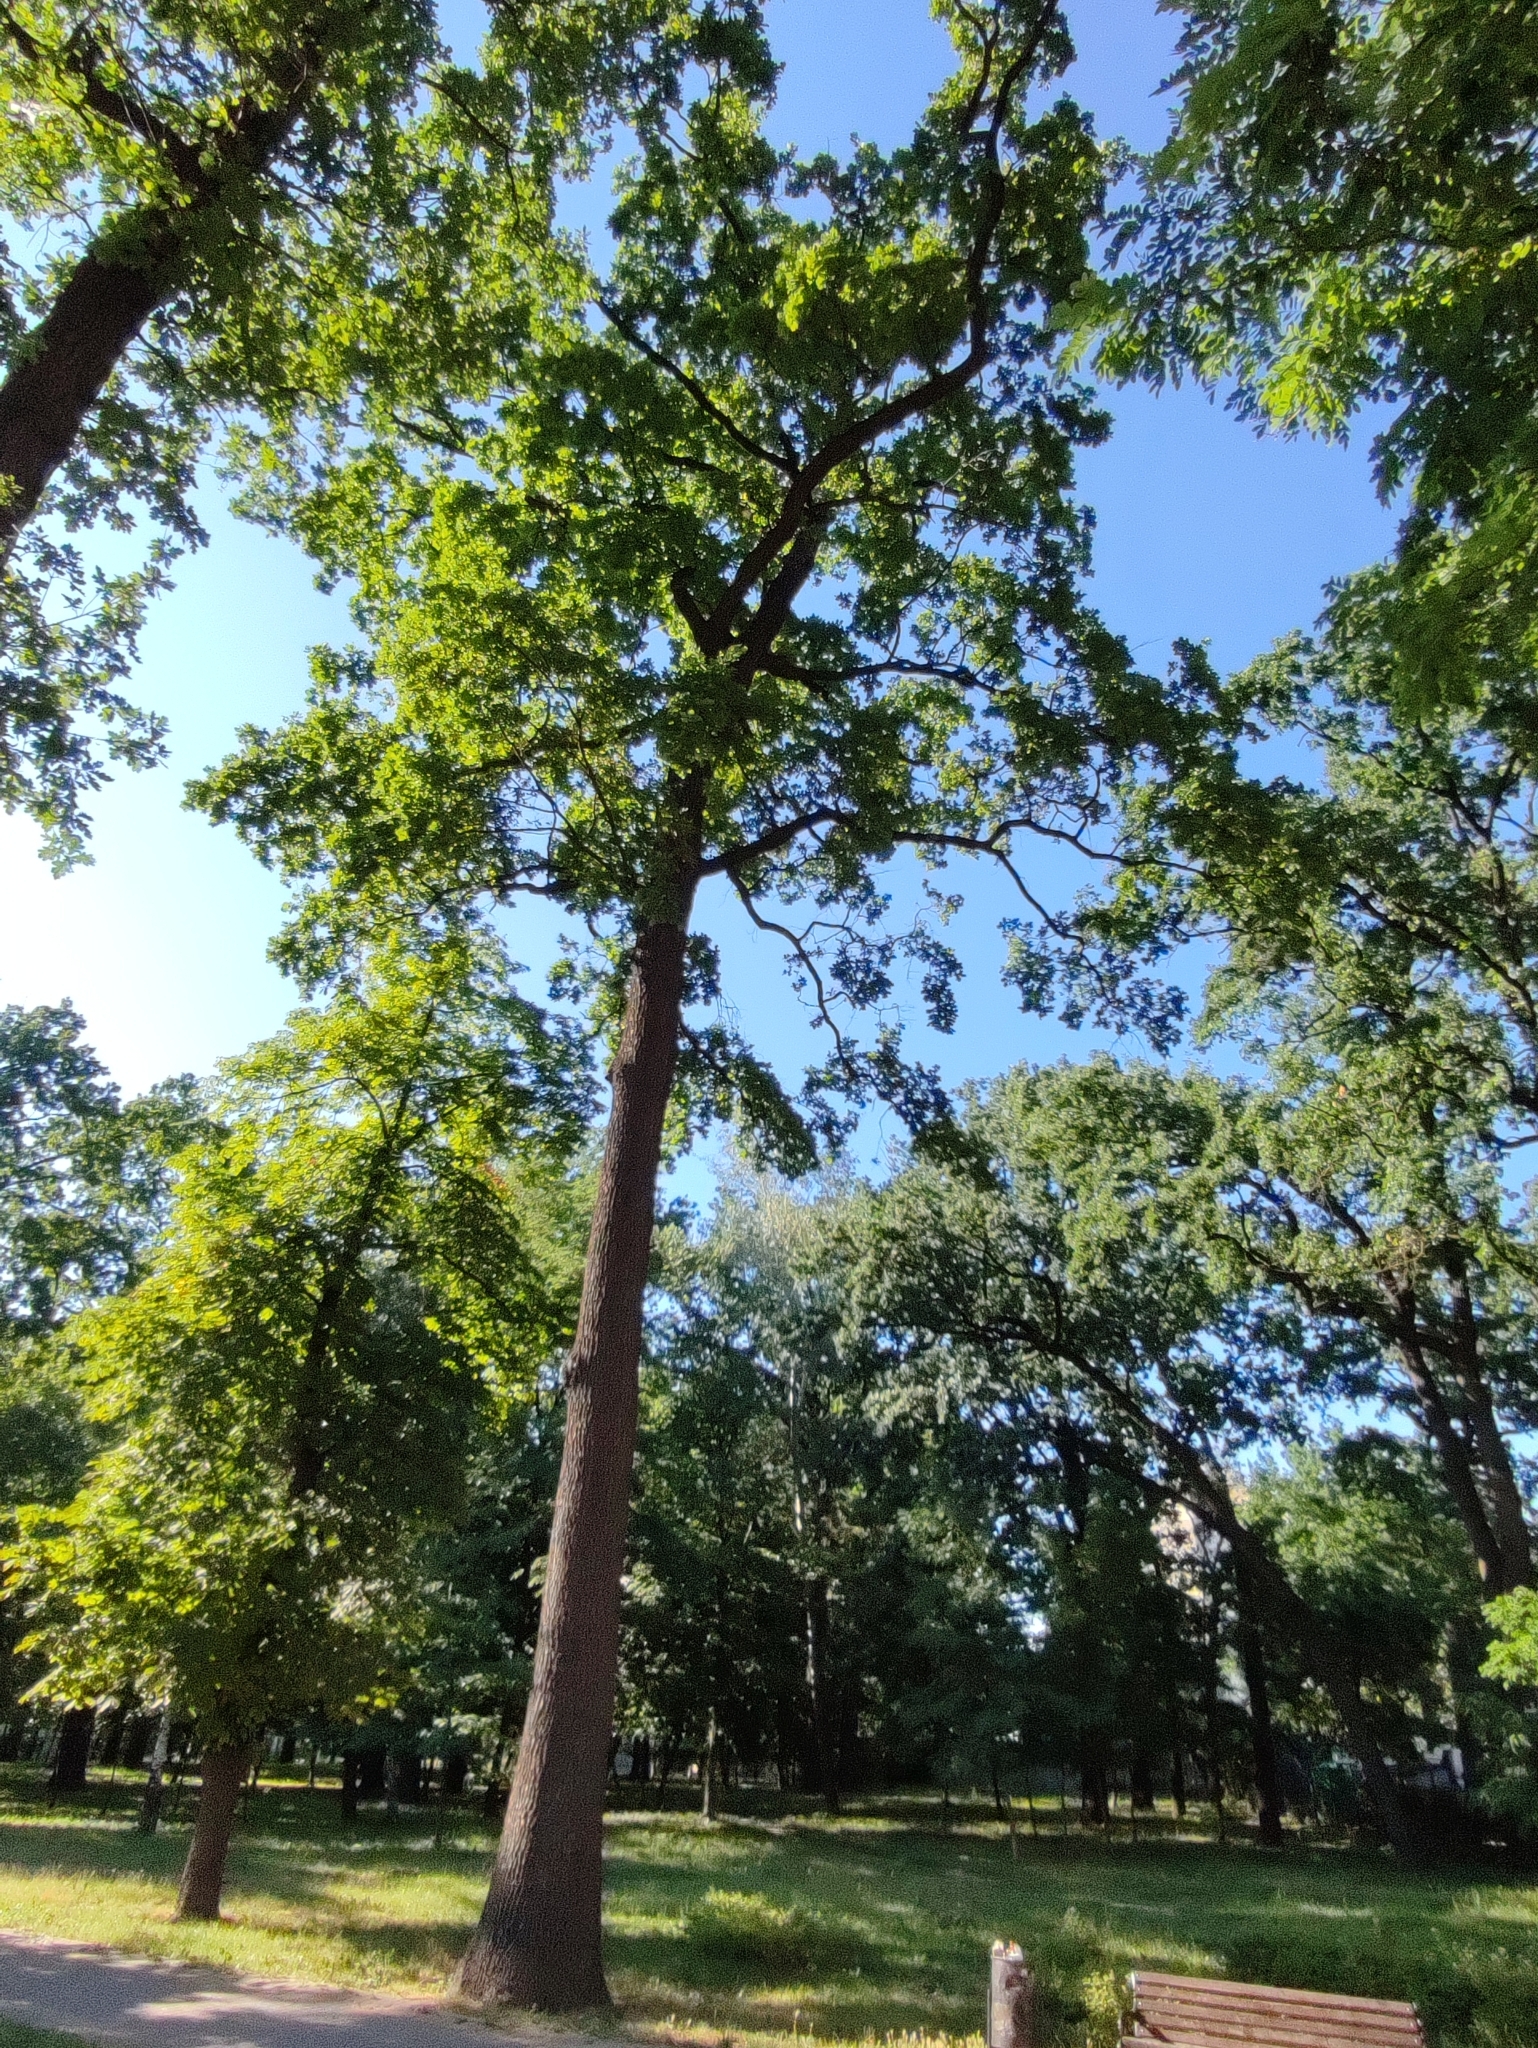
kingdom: Plantae
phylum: Tracheophyta
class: Magnoliopsida
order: Fagales
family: Fagaceae
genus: Quercus
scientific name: Quercus robur
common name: Pedunculate oak
